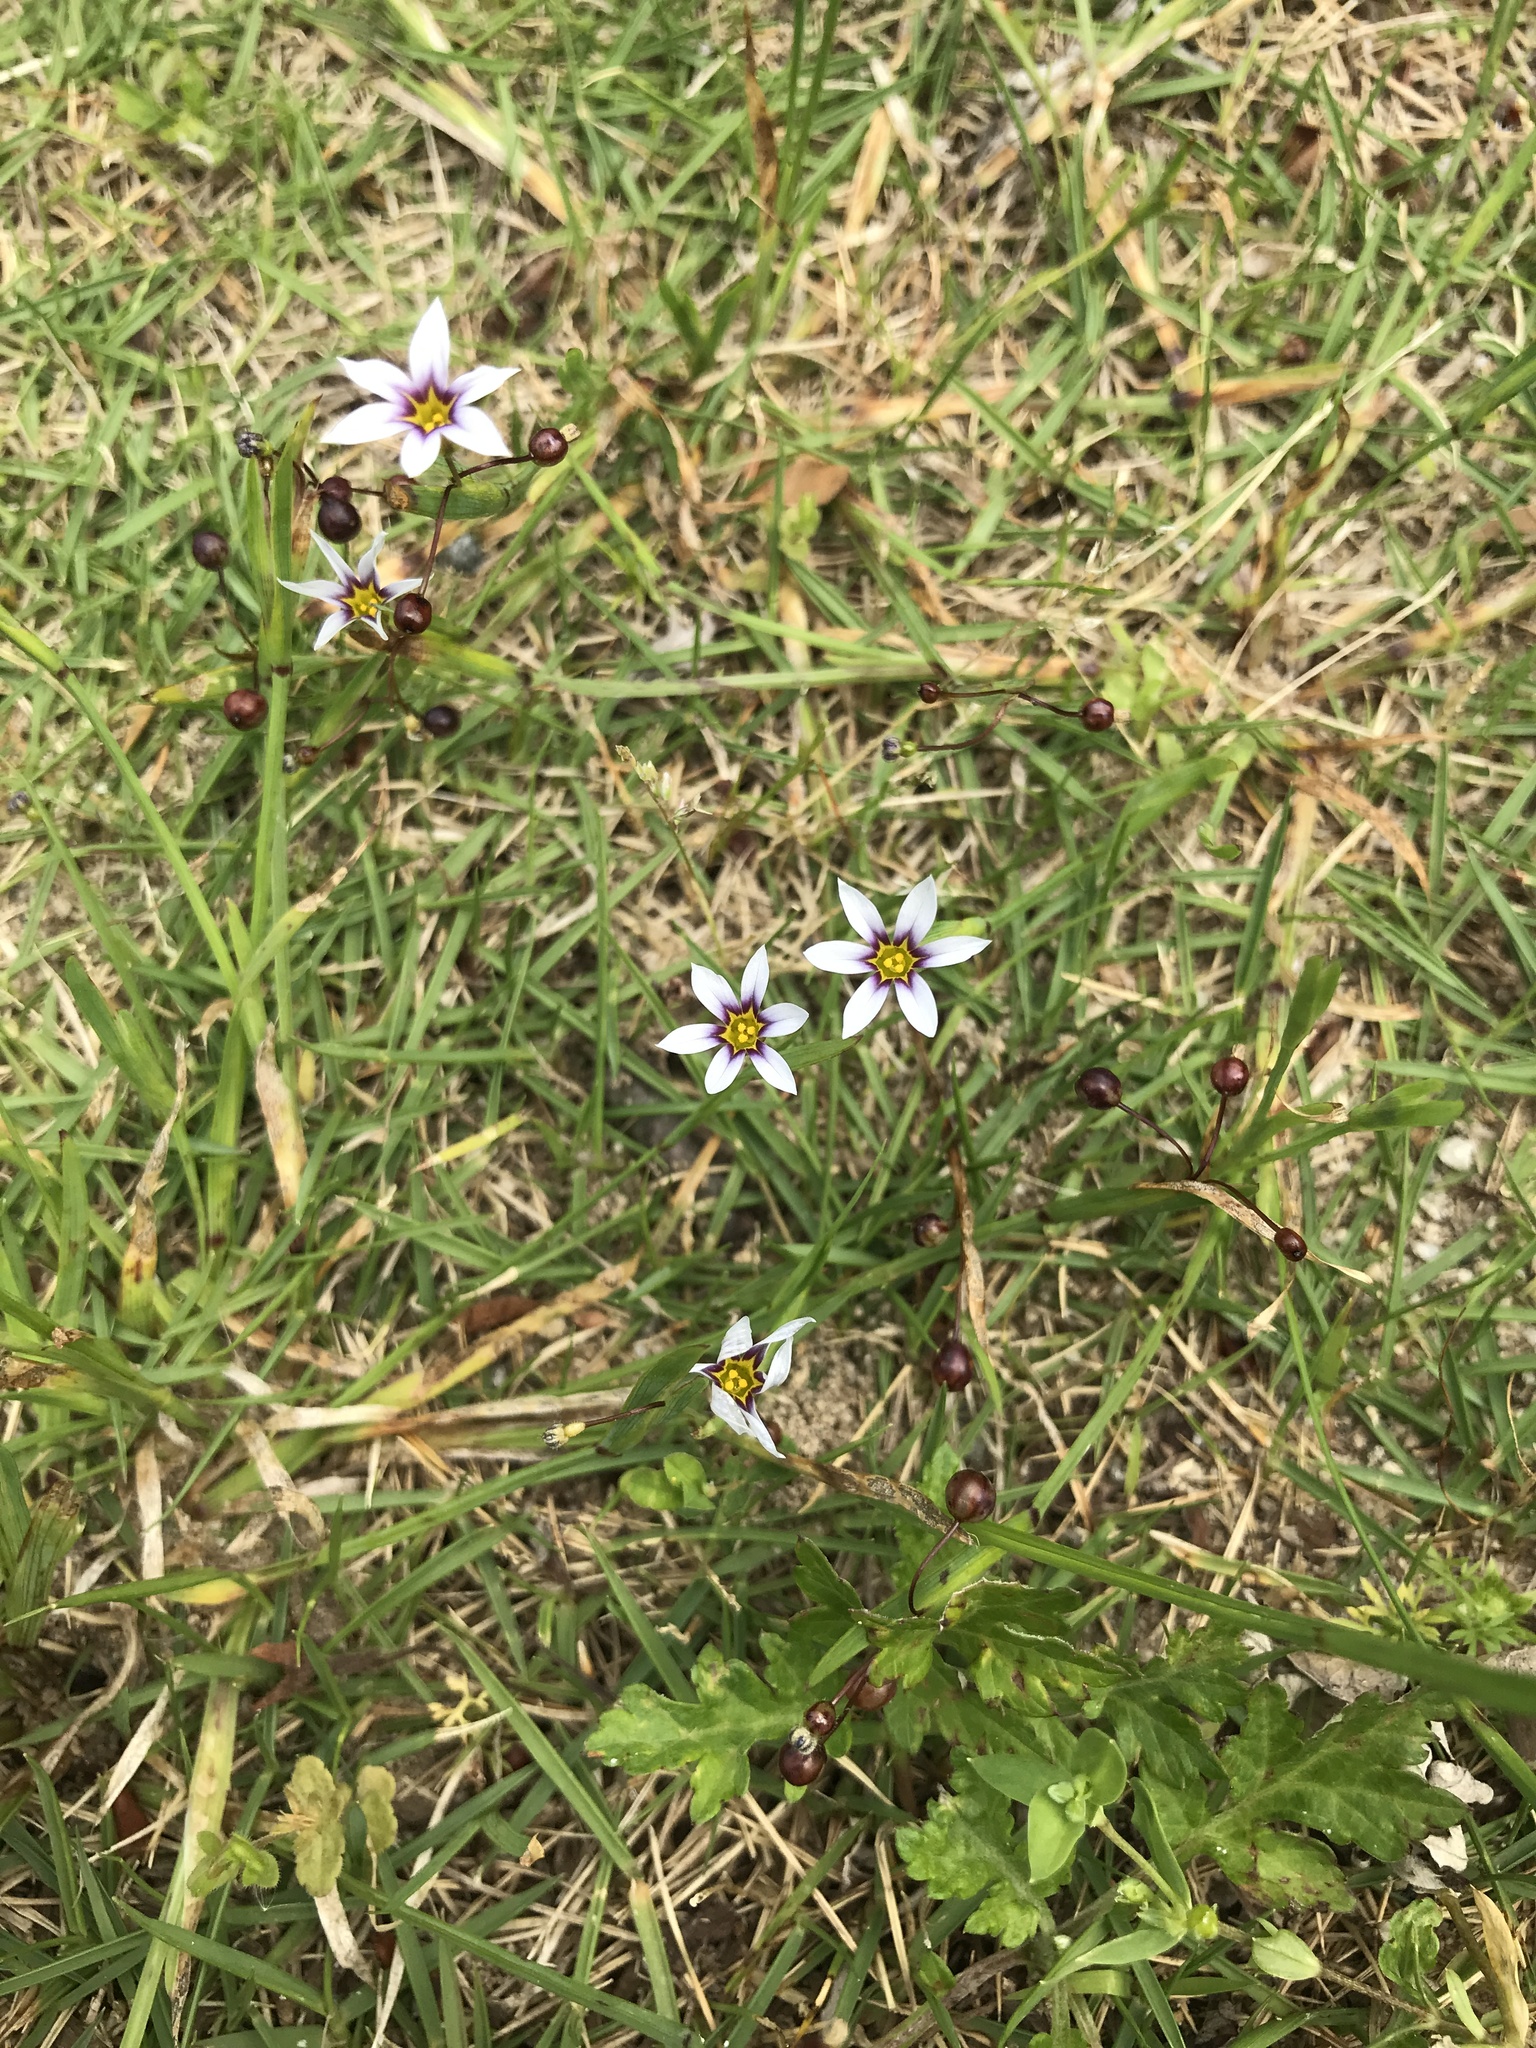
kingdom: Plantae
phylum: Tracheophyta
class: Liliopsida
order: Asparagales
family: Iridaceae
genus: Sisyrinchium
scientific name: Sisyrinchium micranthum
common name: Bermuda pigroot
